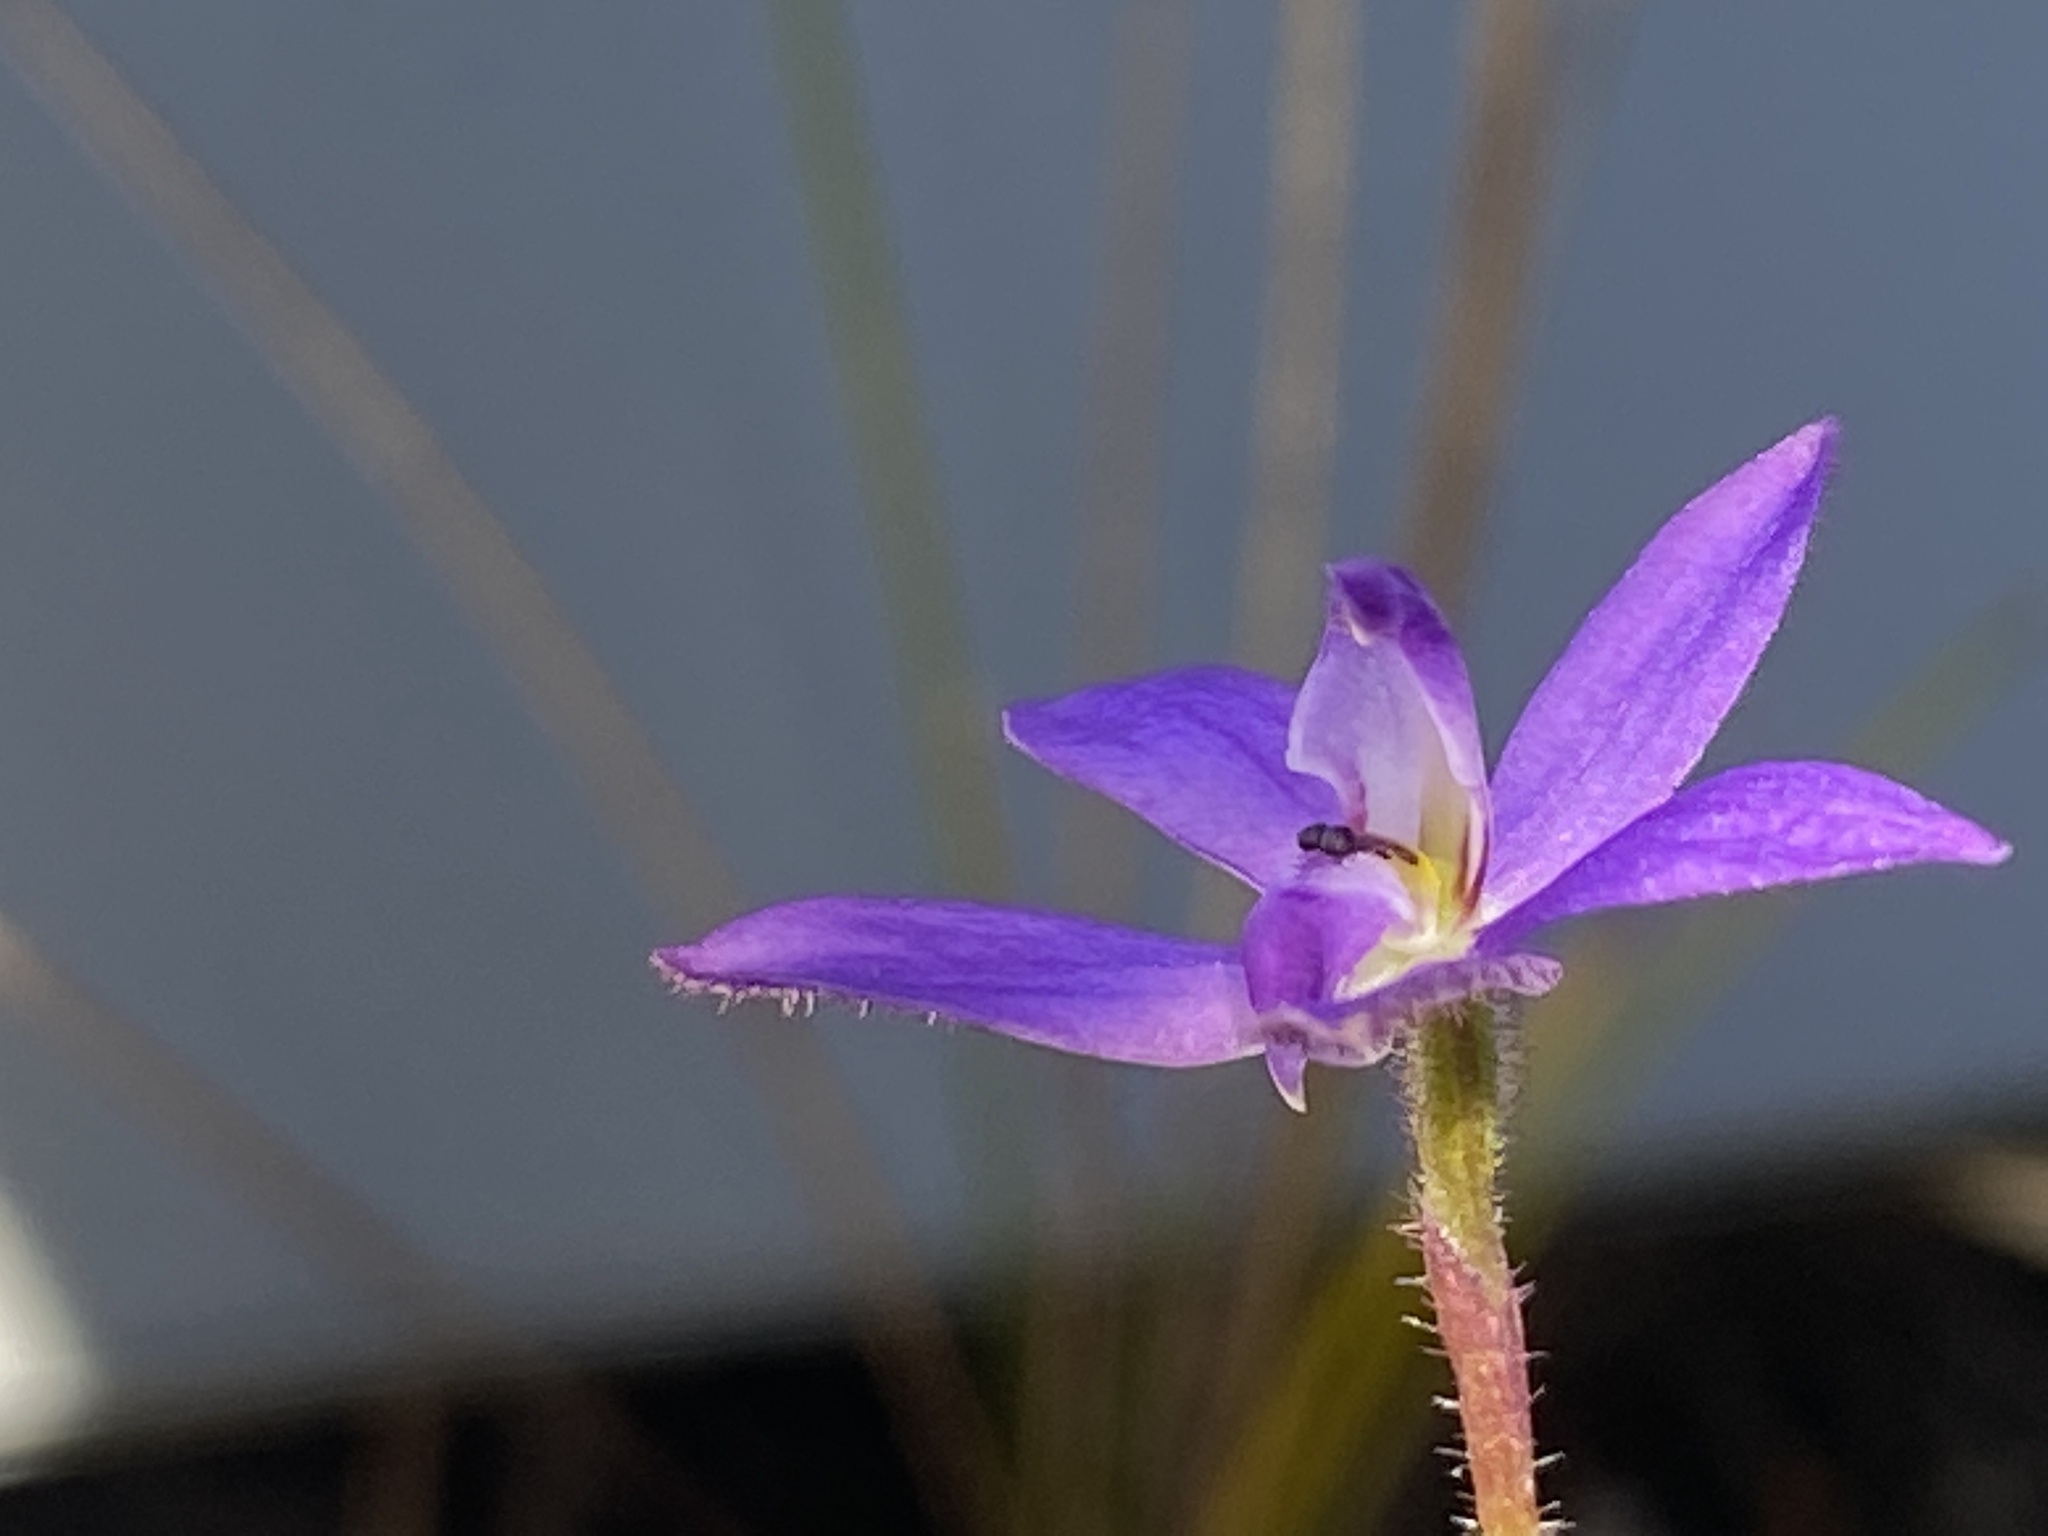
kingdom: Plantae
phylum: Tracheophyta
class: Liliopsida
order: Asparagales
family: Orchidaceae
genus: Caladenia
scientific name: Caladenia minorata
